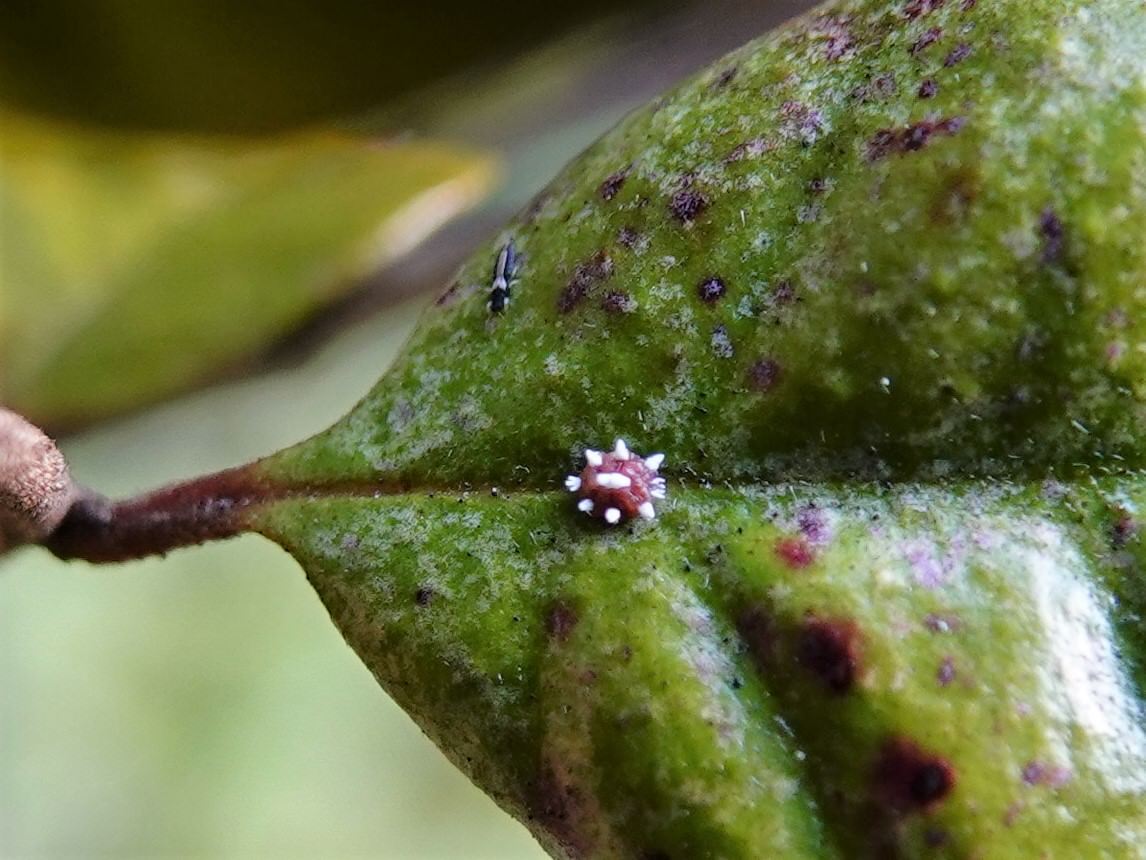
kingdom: Animalia
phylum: Arthropoda
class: Insecta
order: Hemiptera
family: Coccidae
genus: Ceroplastes
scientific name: Ceroplastes sinensis
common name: Hard wax scale
